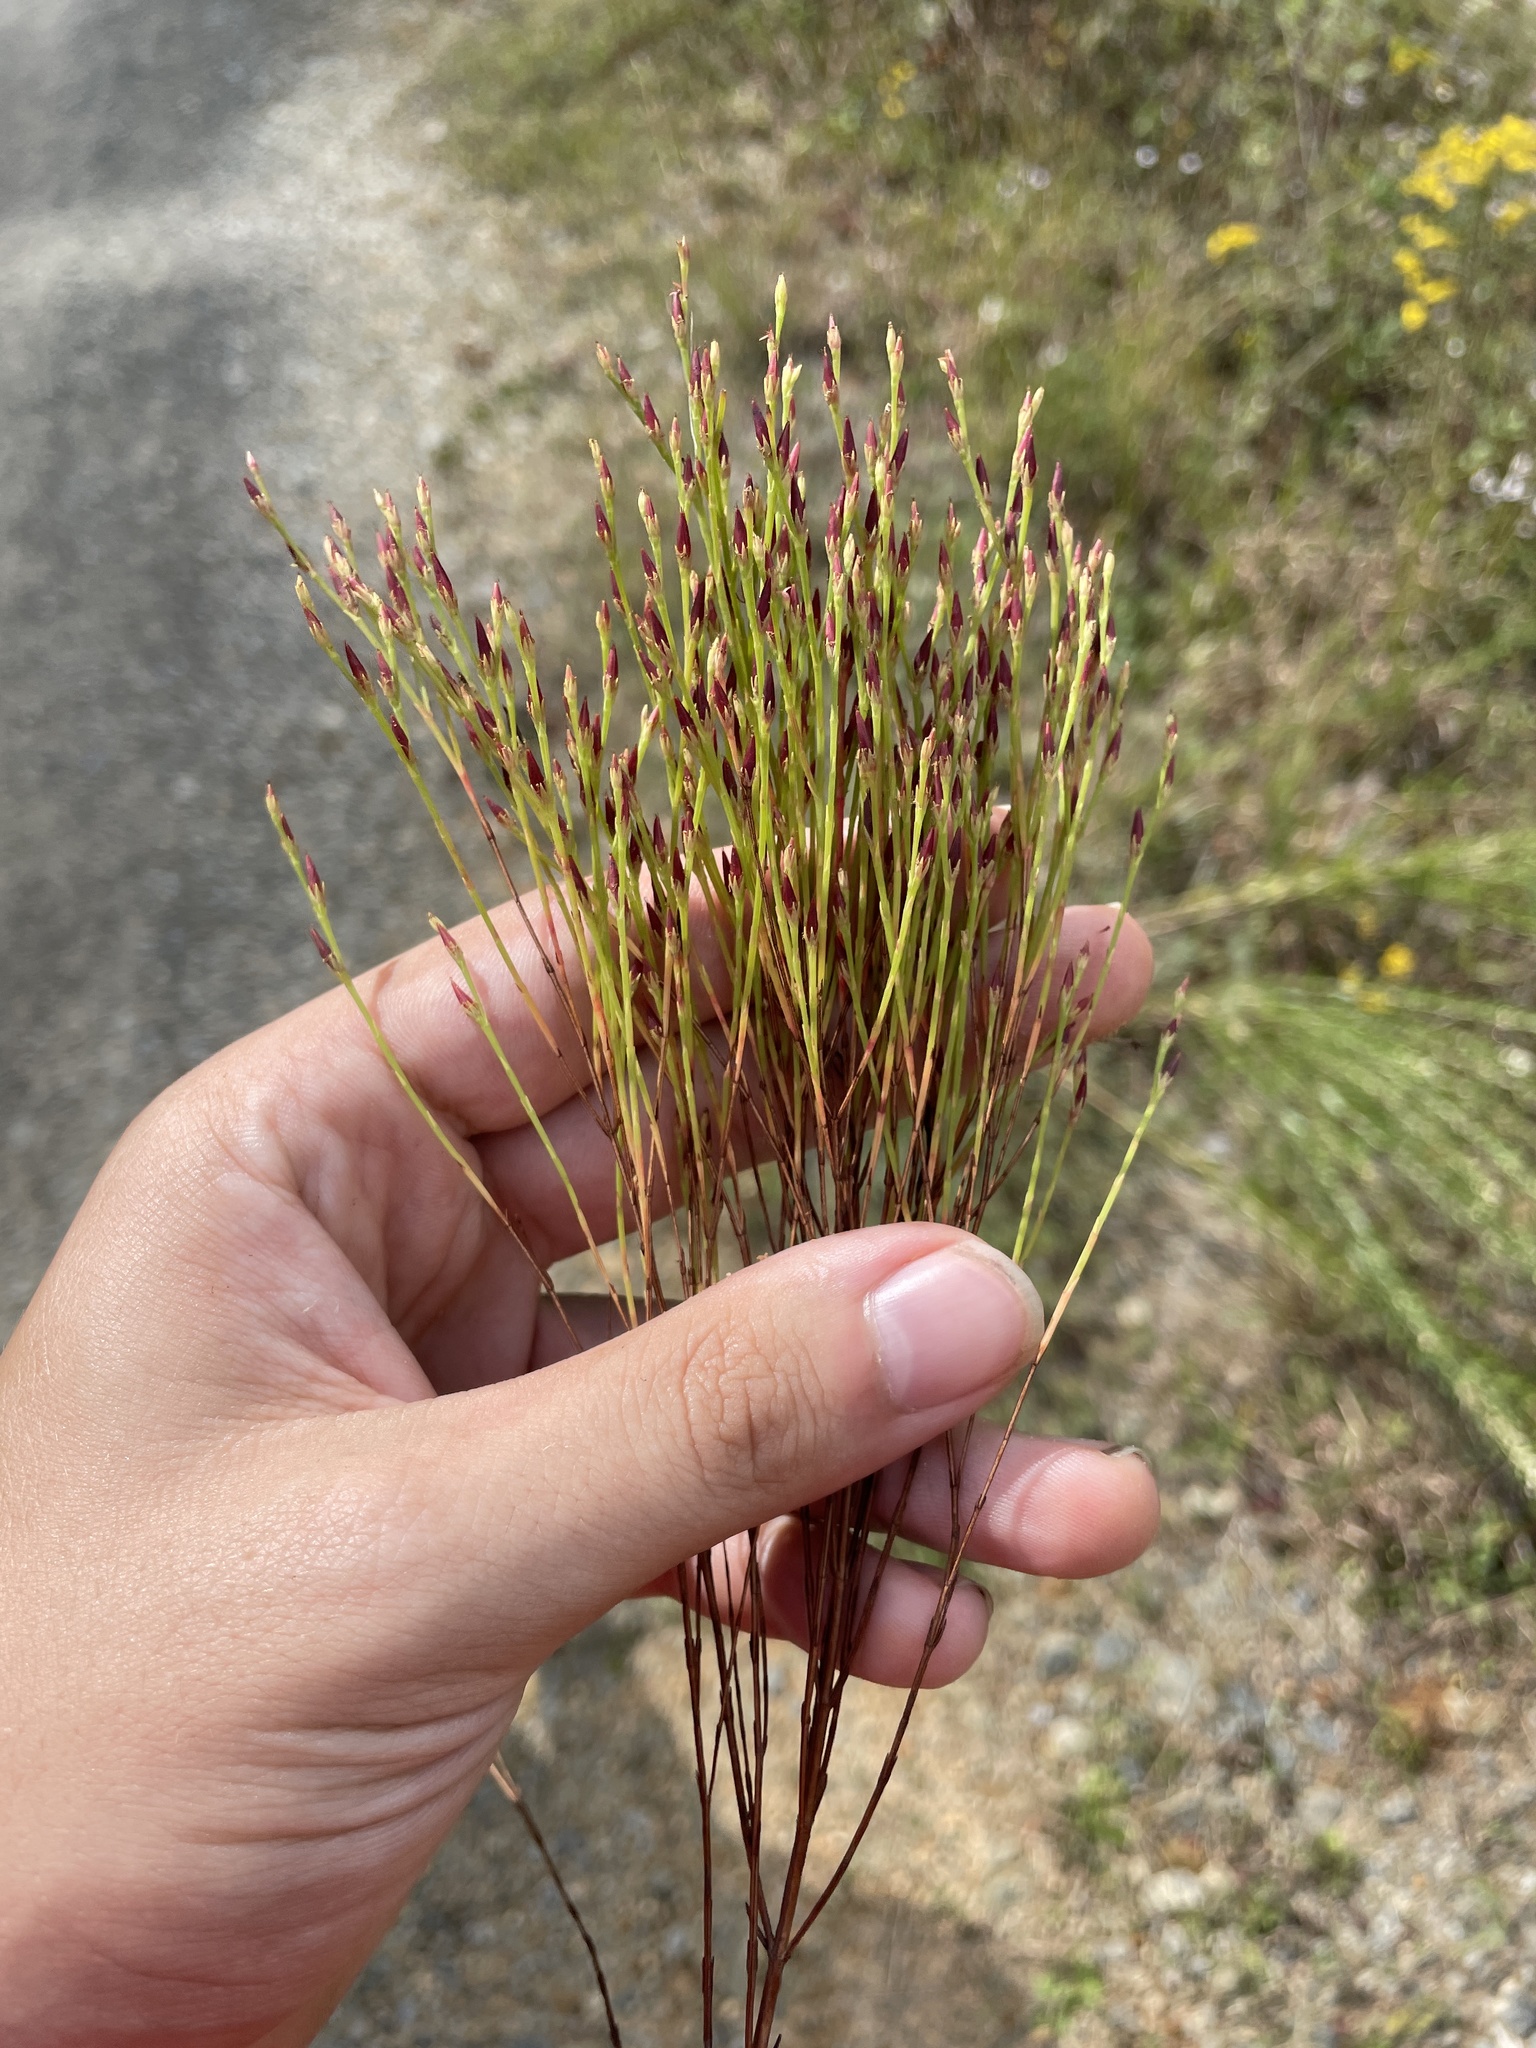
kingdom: Plantae
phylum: Tracheophyta
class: Magnoliopsida
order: Malpighiales
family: Hypericaceae
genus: Hypericum
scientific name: Hypericum gentianoides
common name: Gentian-leaved st. john's-wort
